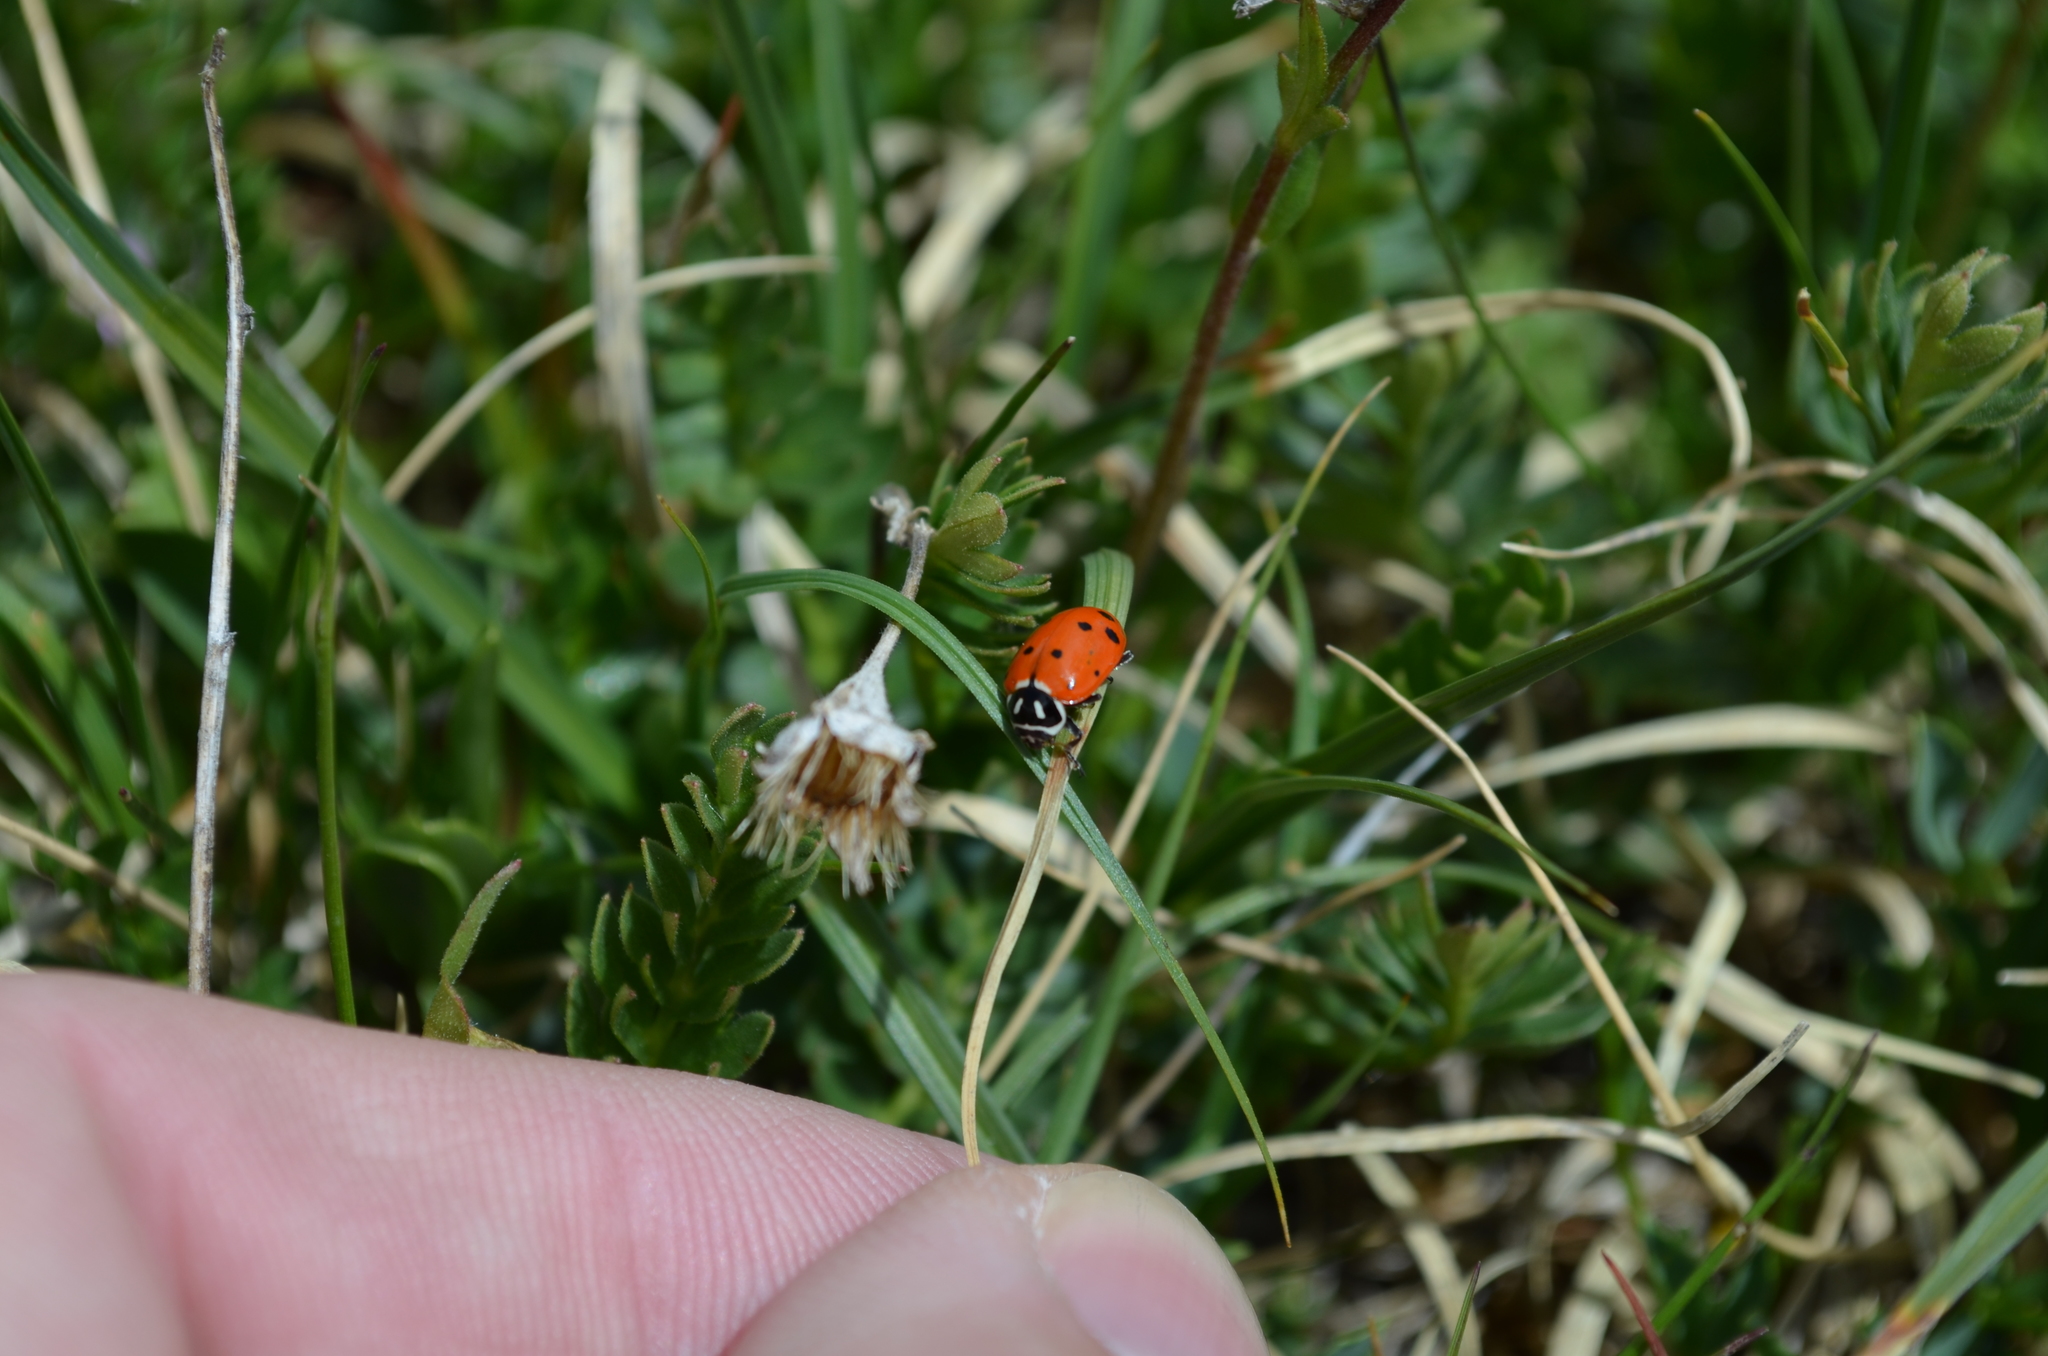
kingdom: Animalia
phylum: Arthropoda
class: Insecta
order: Coleoptera
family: Coccinellidae
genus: Hippodamia
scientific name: Hippodamia convergens
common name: Convergent lady beetle
